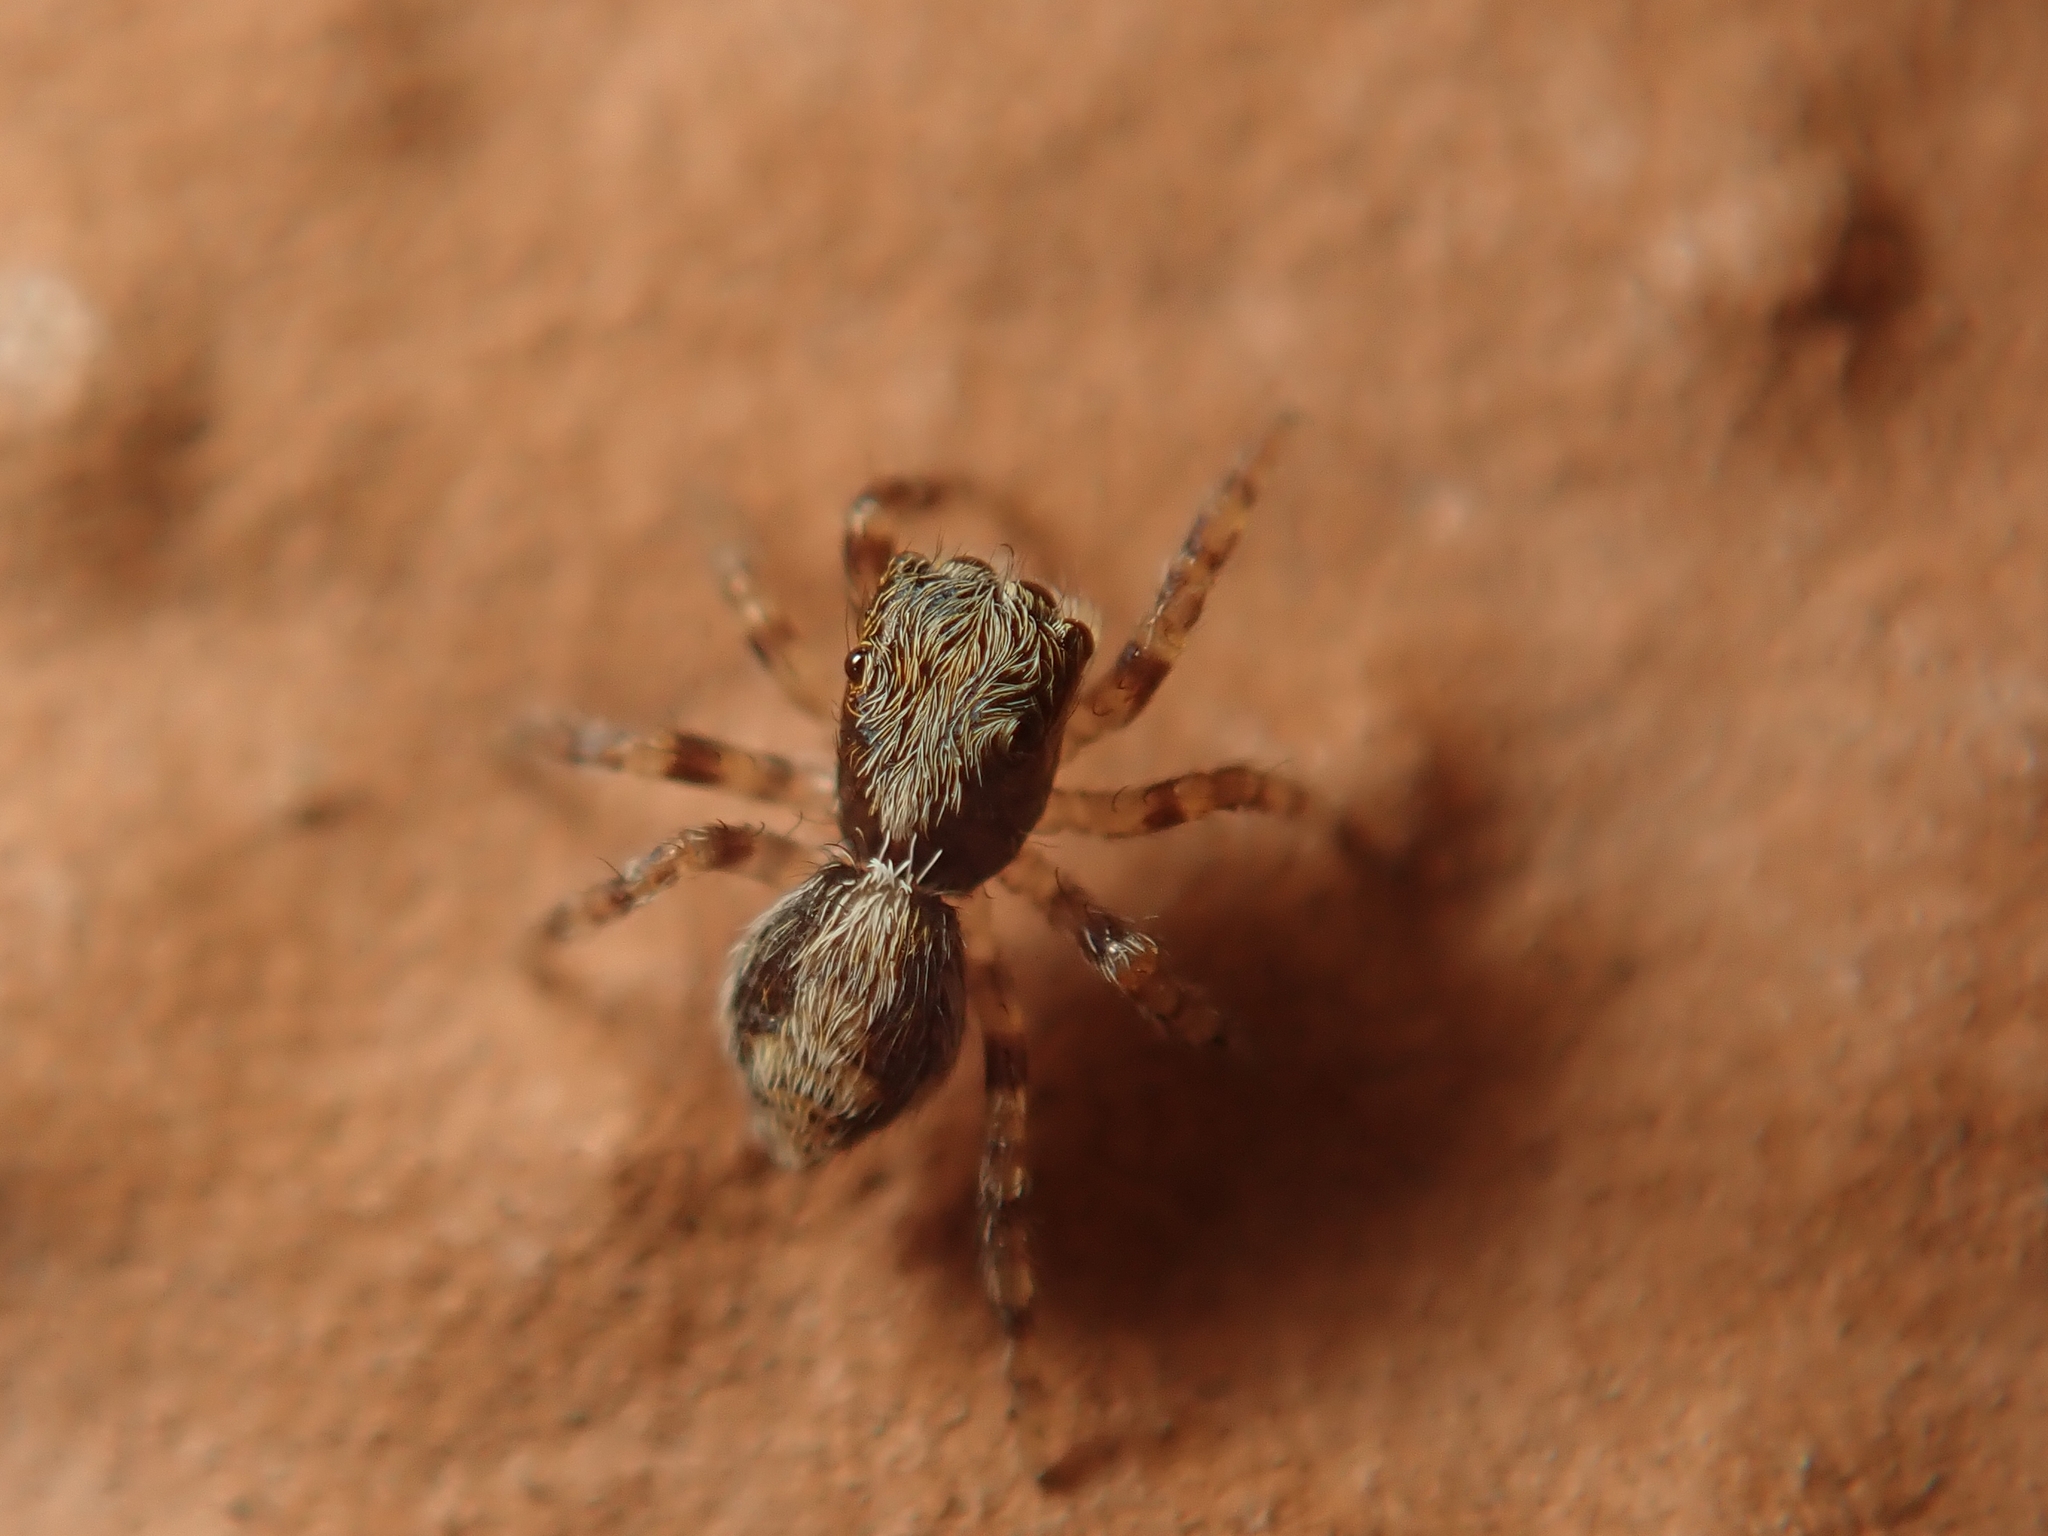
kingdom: Animalia
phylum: Arthropoda
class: Arachnida
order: Araneae
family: Salticidae
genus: Pseudeuophrys
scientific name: Pseudeuophrys lanigera
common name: Jumping spider
